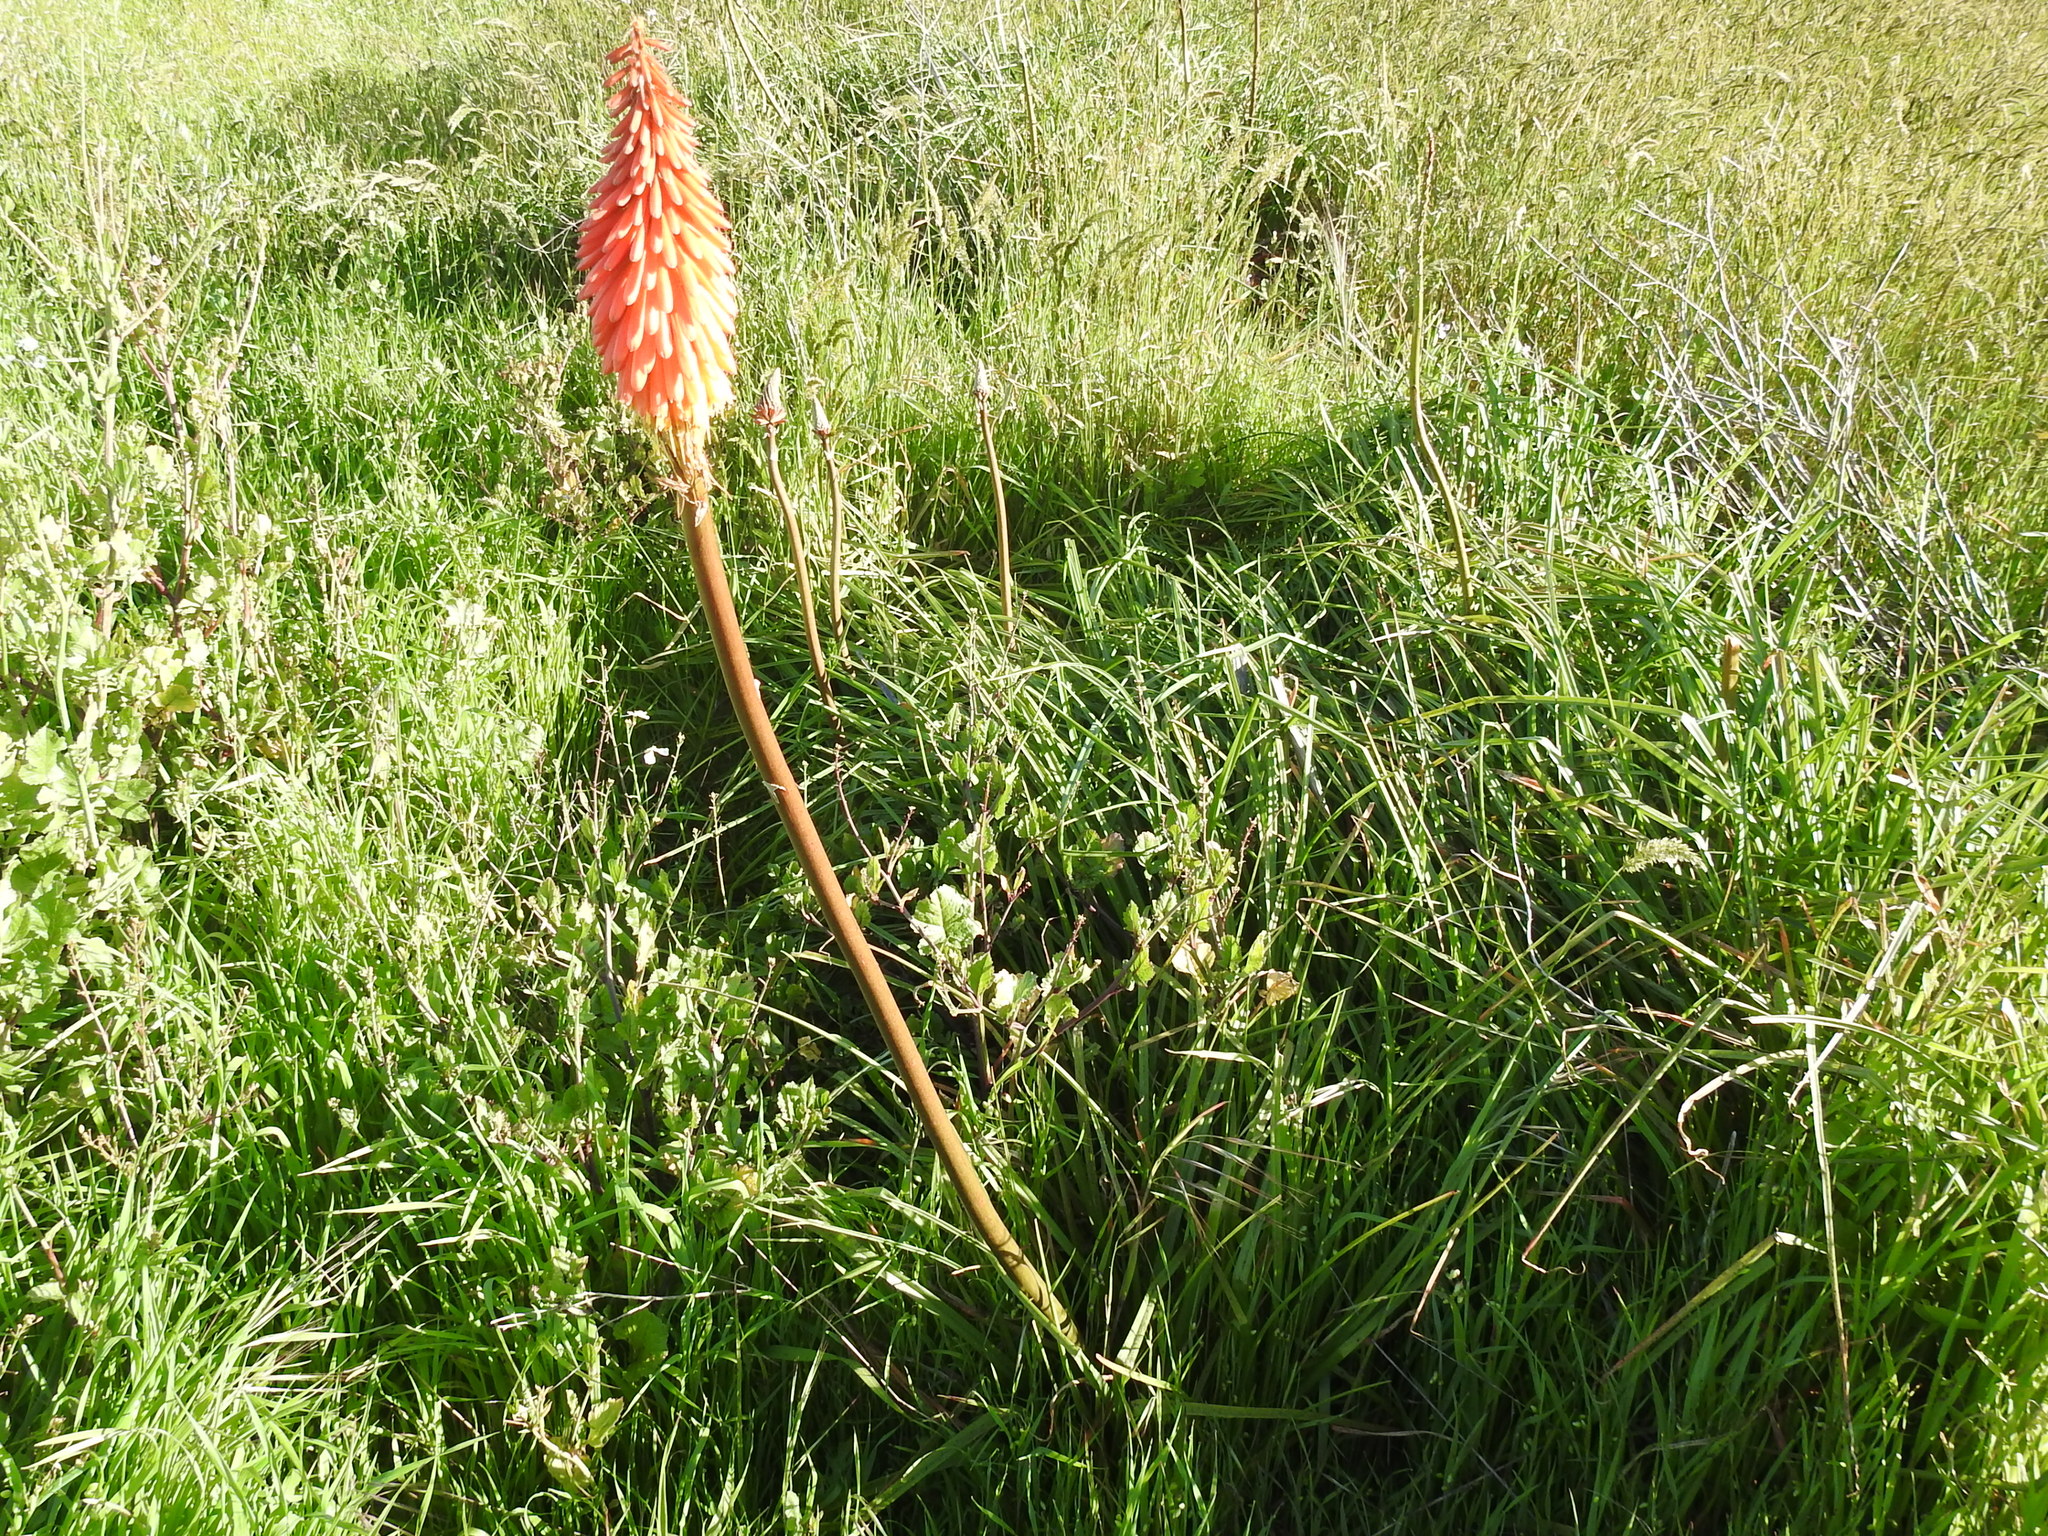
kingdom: Plantae
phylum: Tracheophyta
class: Liliopsida
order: Asparagales
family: Asphodelaceae
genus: Kniphofia
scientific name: Kniphofia uvaria
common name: Red-hot-poker
